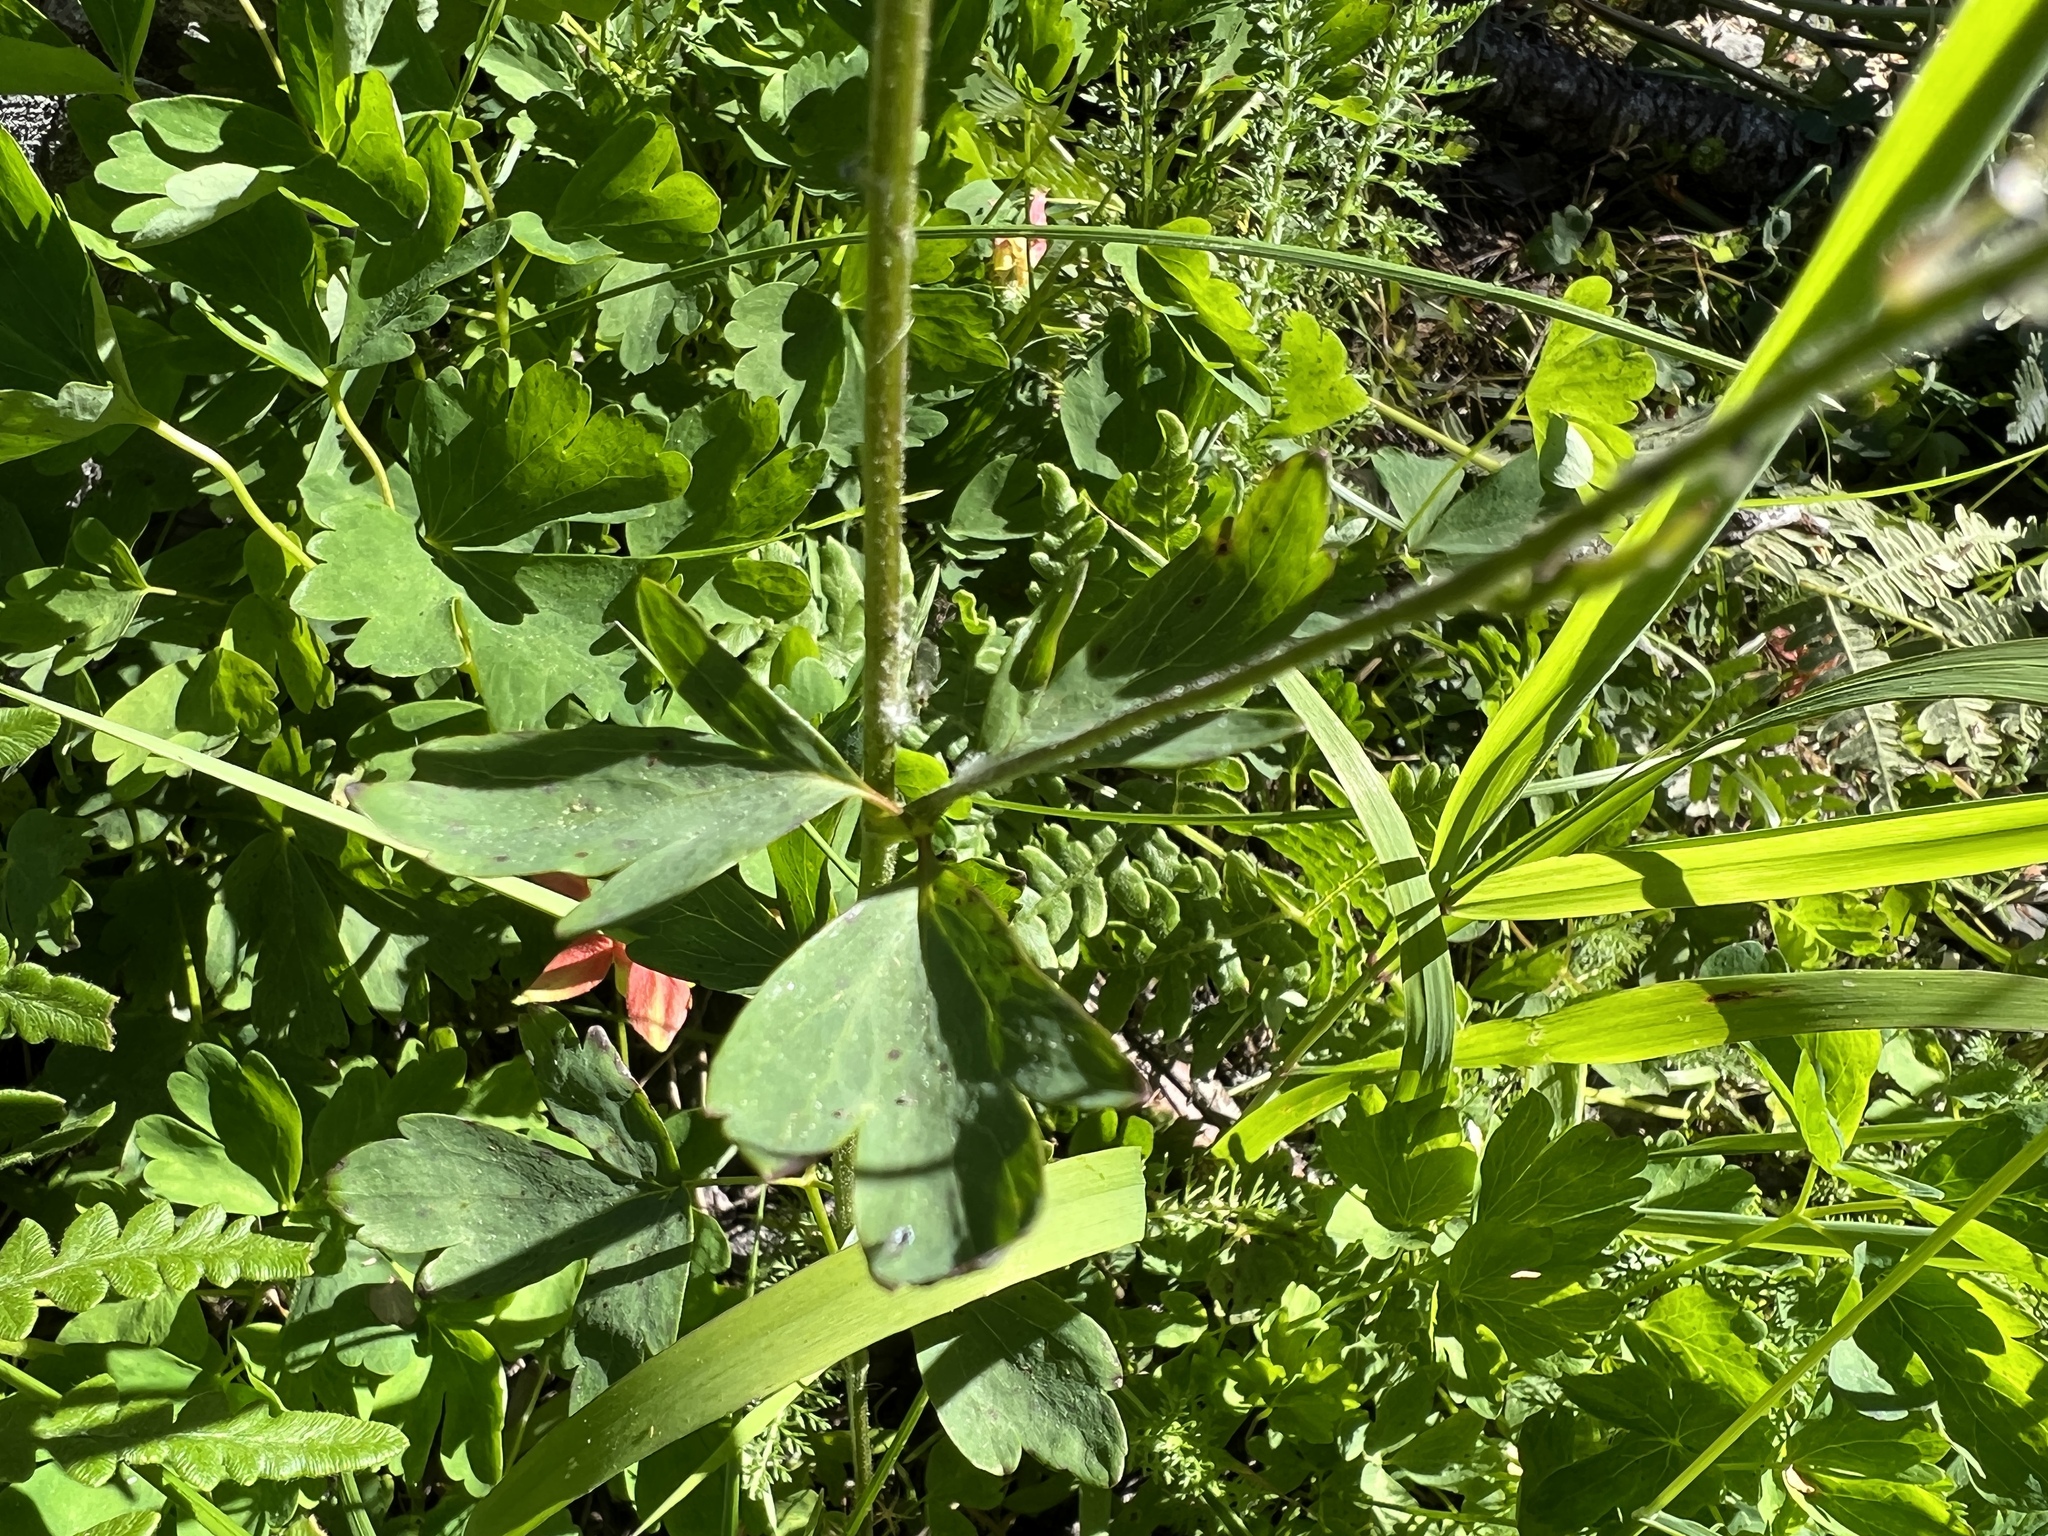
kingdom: Plantae
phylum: Tracheophyta
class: Magnoliopsida
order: Ranunculales
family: Ranunculaceae
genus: Aquilegia
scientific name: Aquilegia formosa
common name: Sitka columbine
